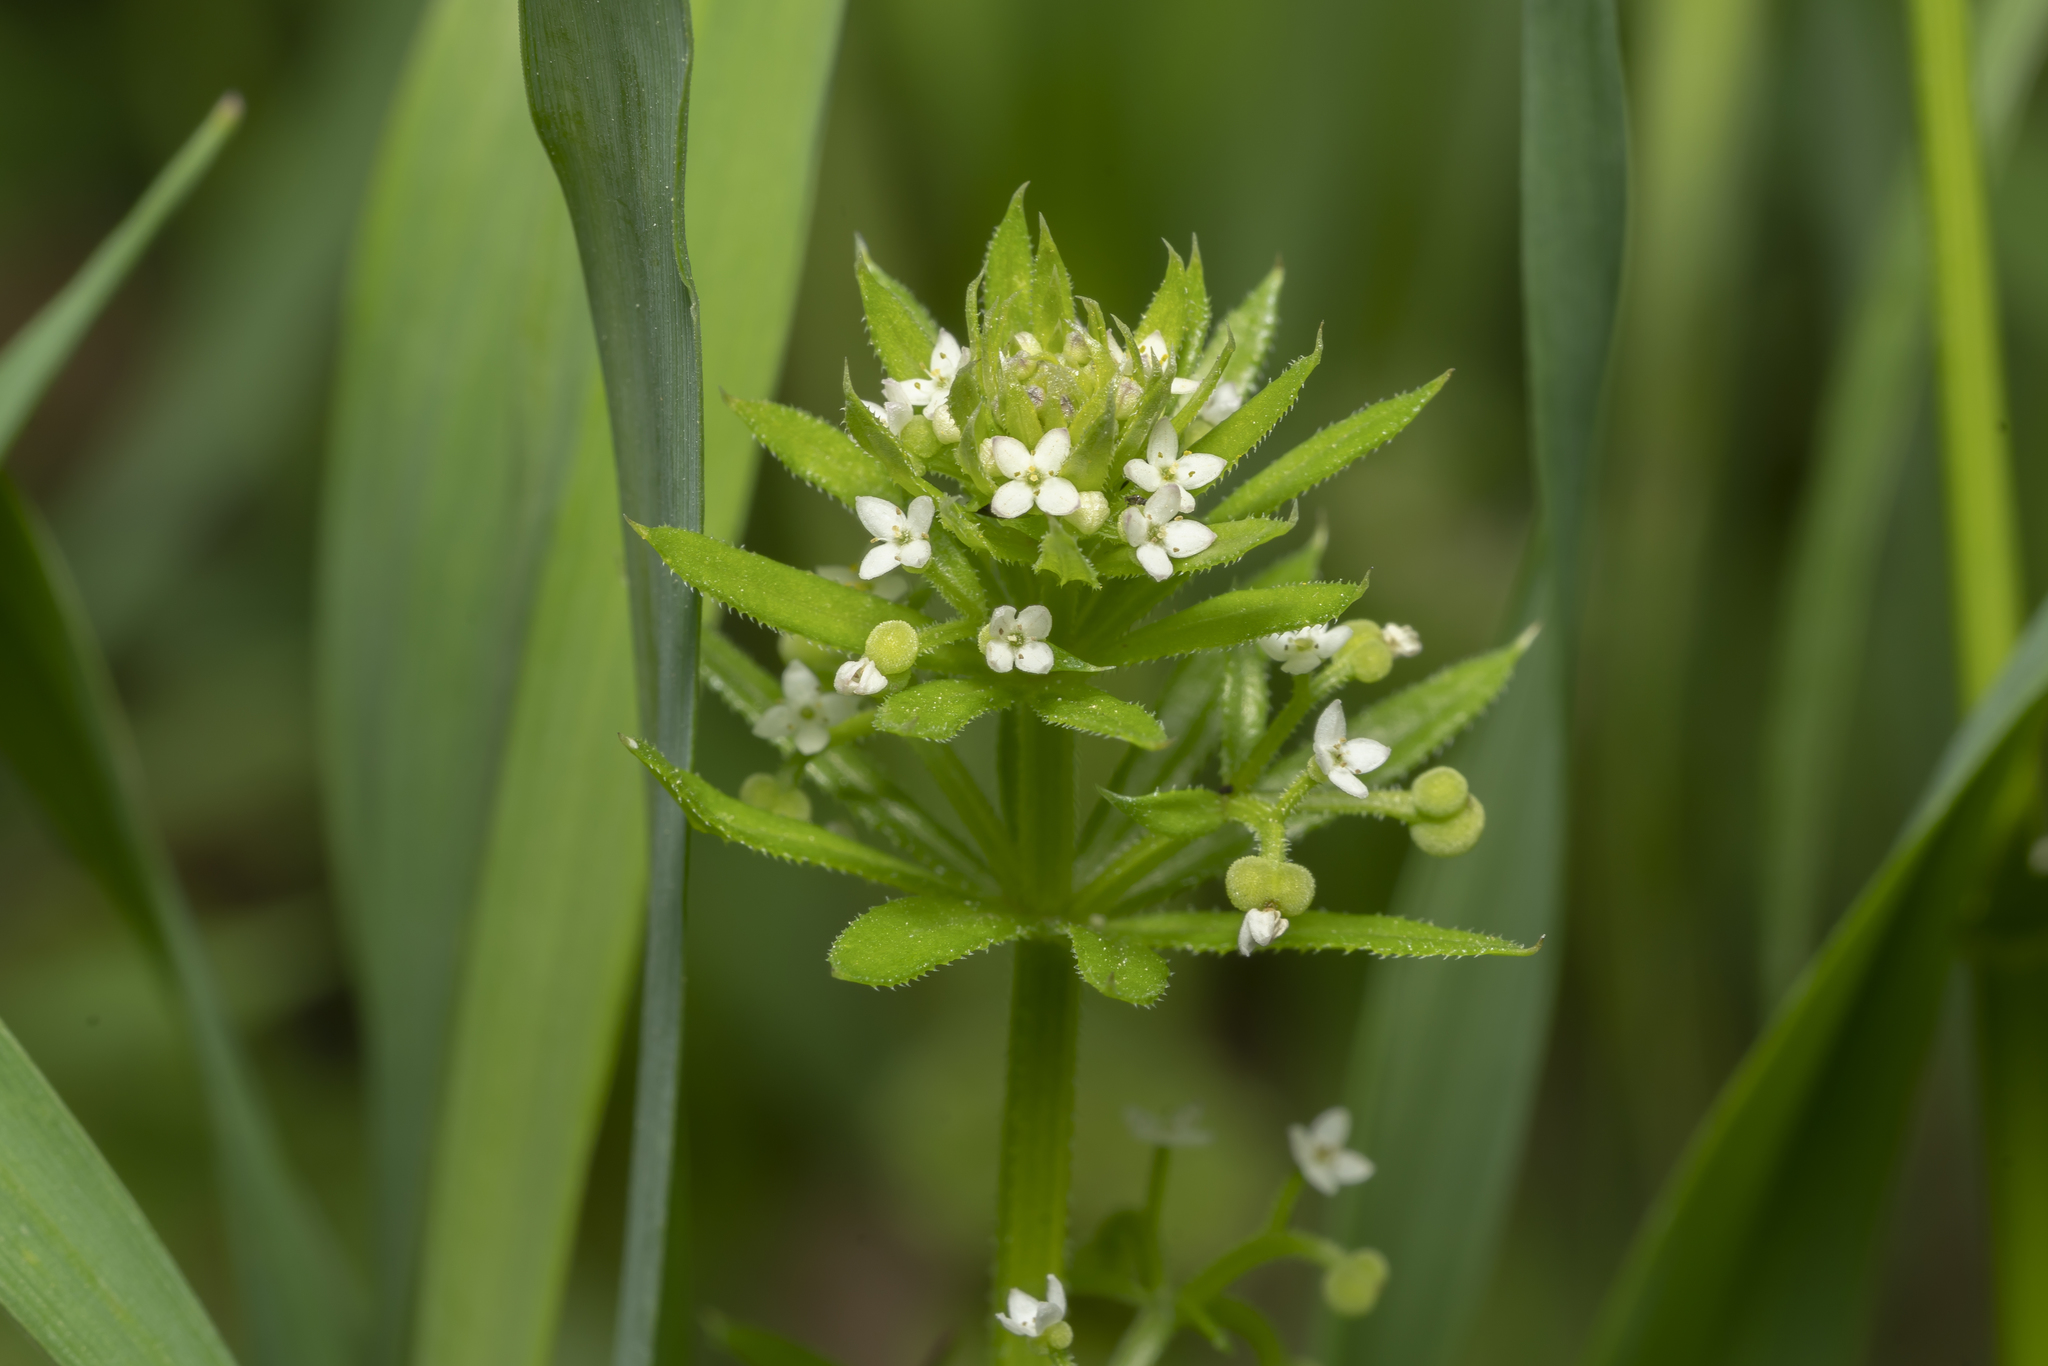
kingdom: Plantae
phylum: Tracheophyta
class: Magnoliopsida
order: Gentianales
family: Rubiaceae
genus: Galium
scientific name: Galium tricornutum
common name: Corn cleavers
